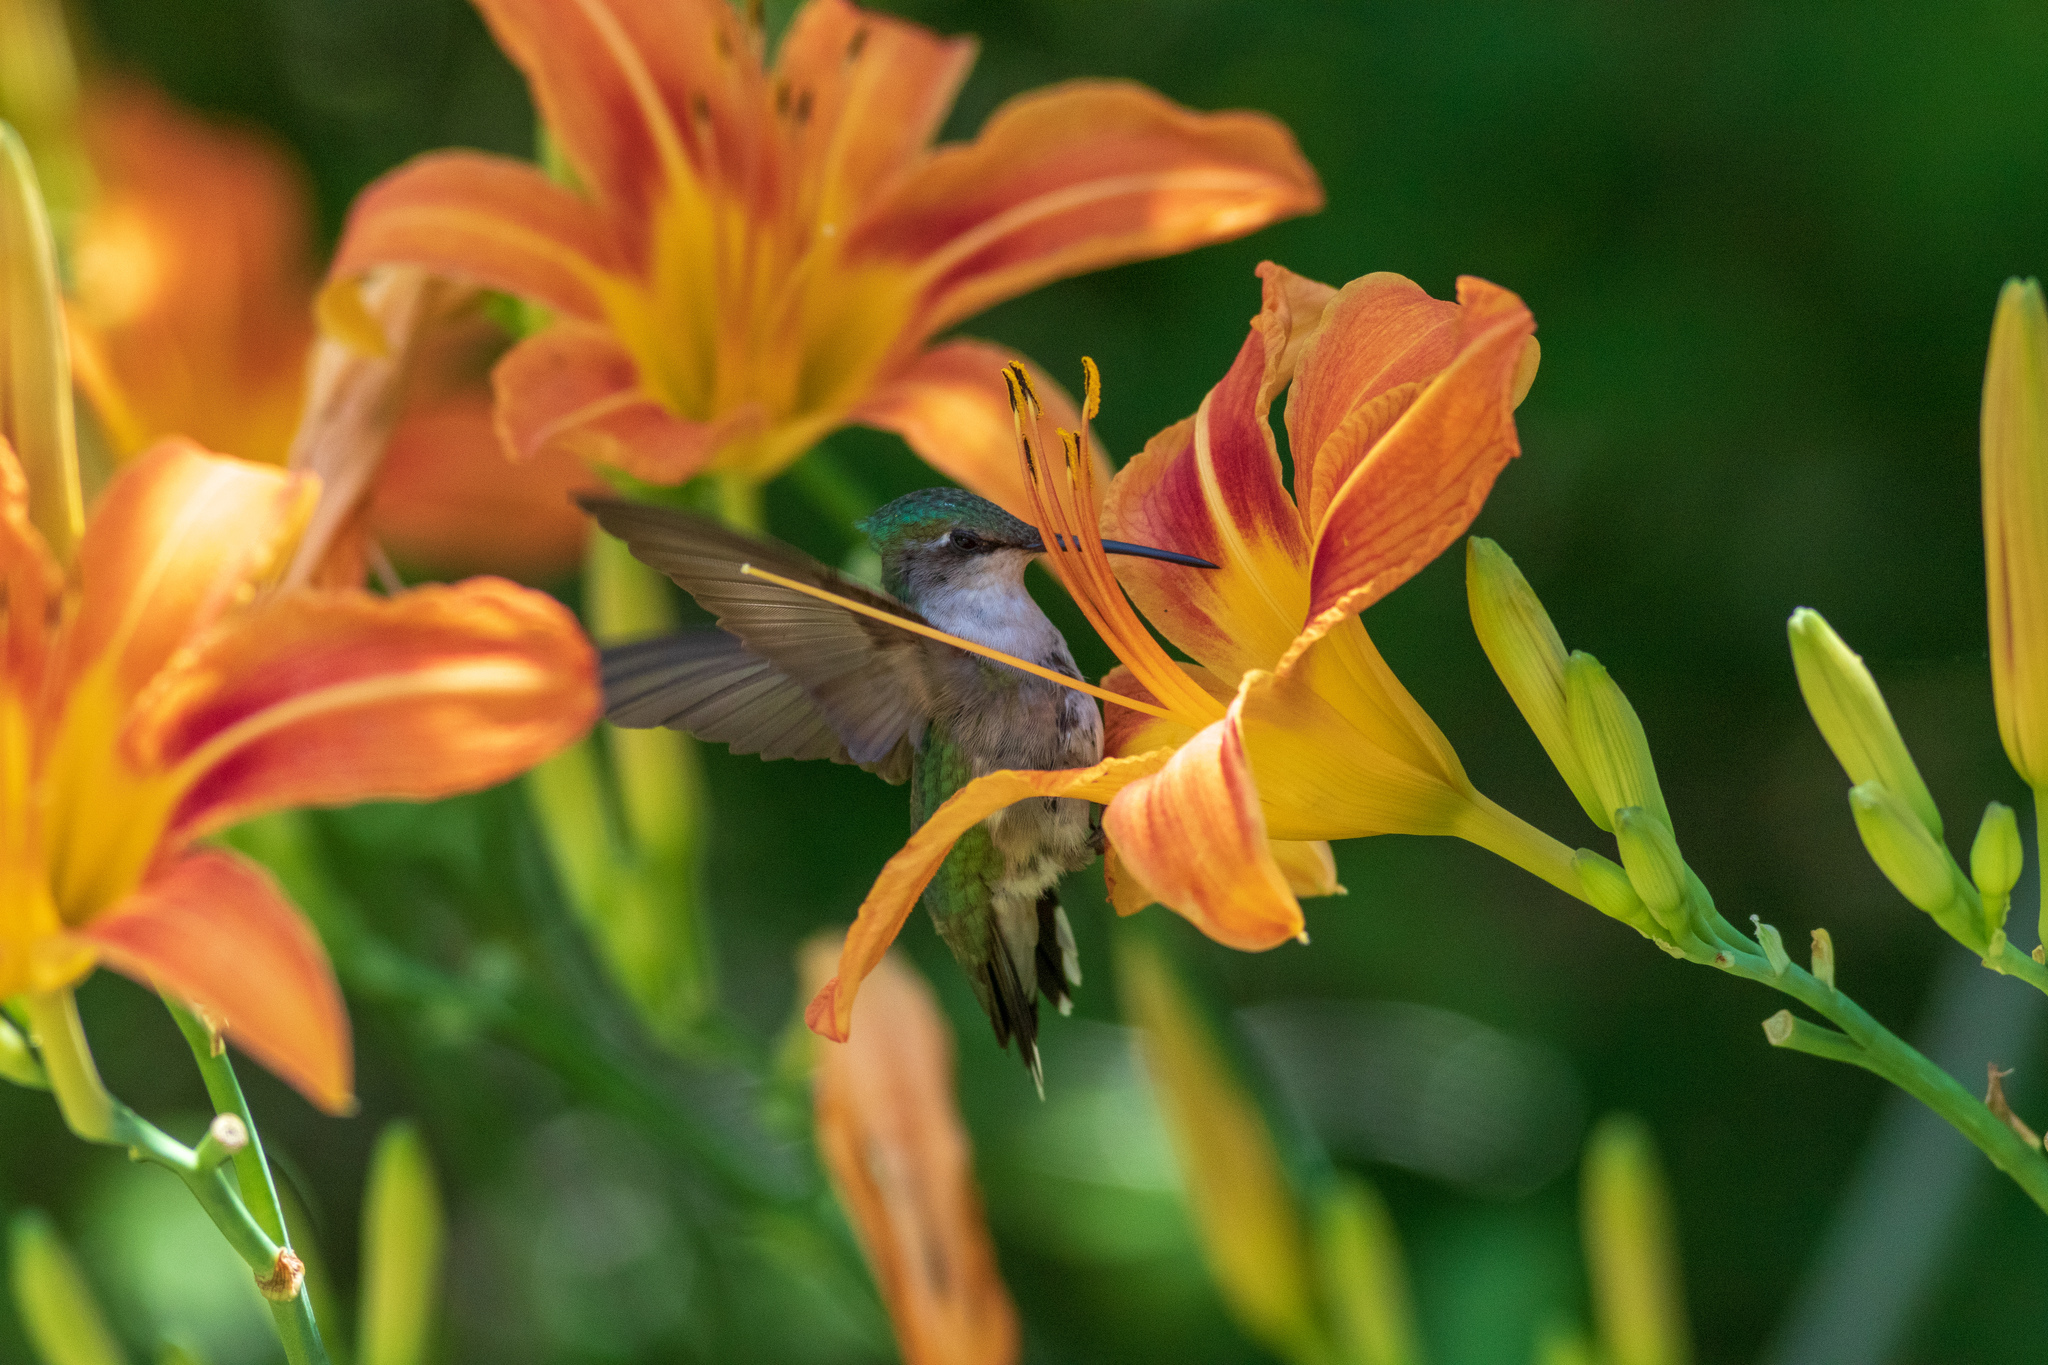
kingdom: Animalia
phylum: Chordata
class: Aves
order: Apodiformes
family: Trochilidae
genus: Archilochus
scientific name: Archilochus colubris
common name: Ruby-throated hummingbird
